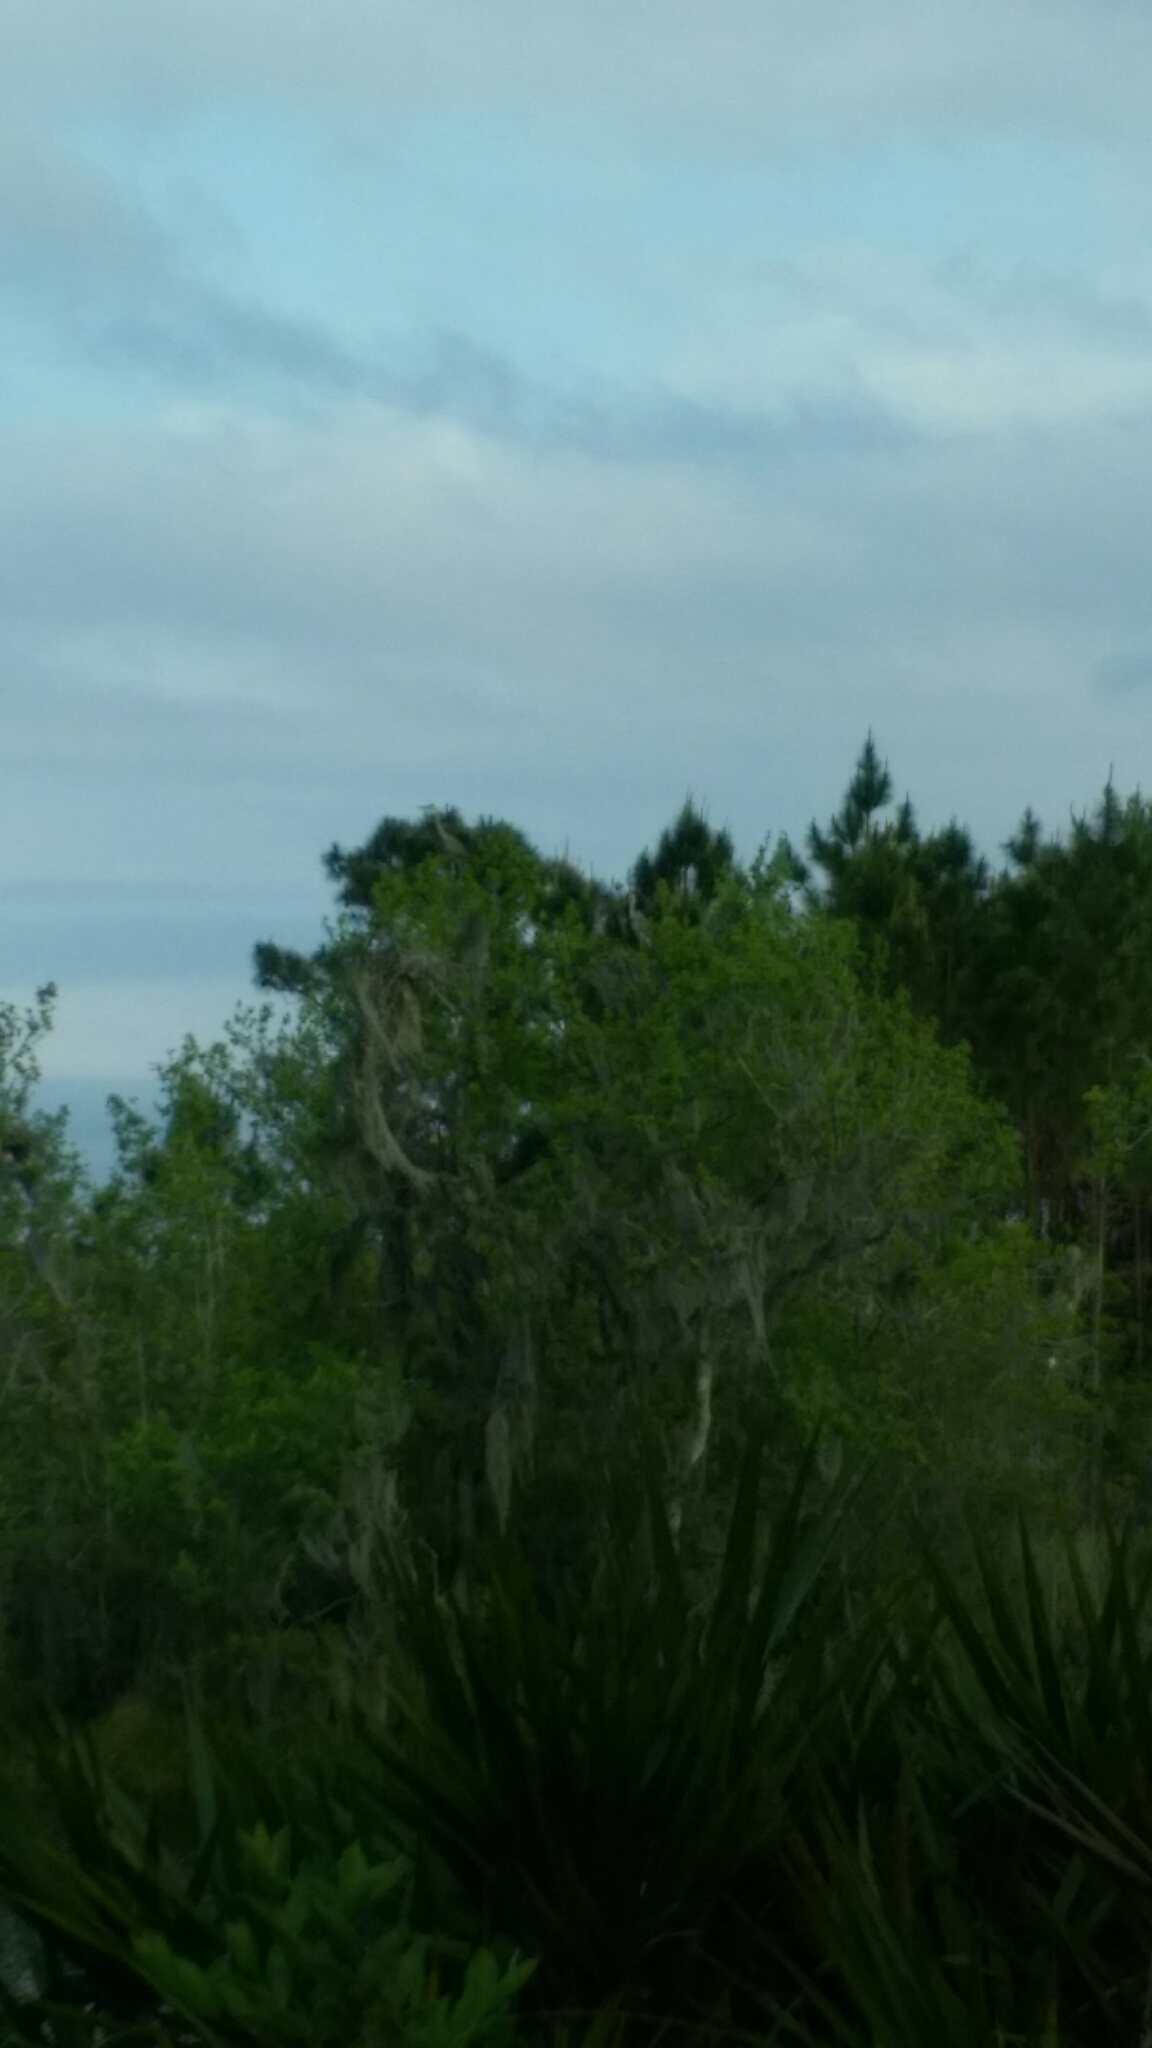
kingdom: Animalia
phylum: Chordata
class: Aves
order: Pelecaniformes
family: Ardeidae
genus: Ardea
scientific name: Ardea herodias
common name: Great blue heron
